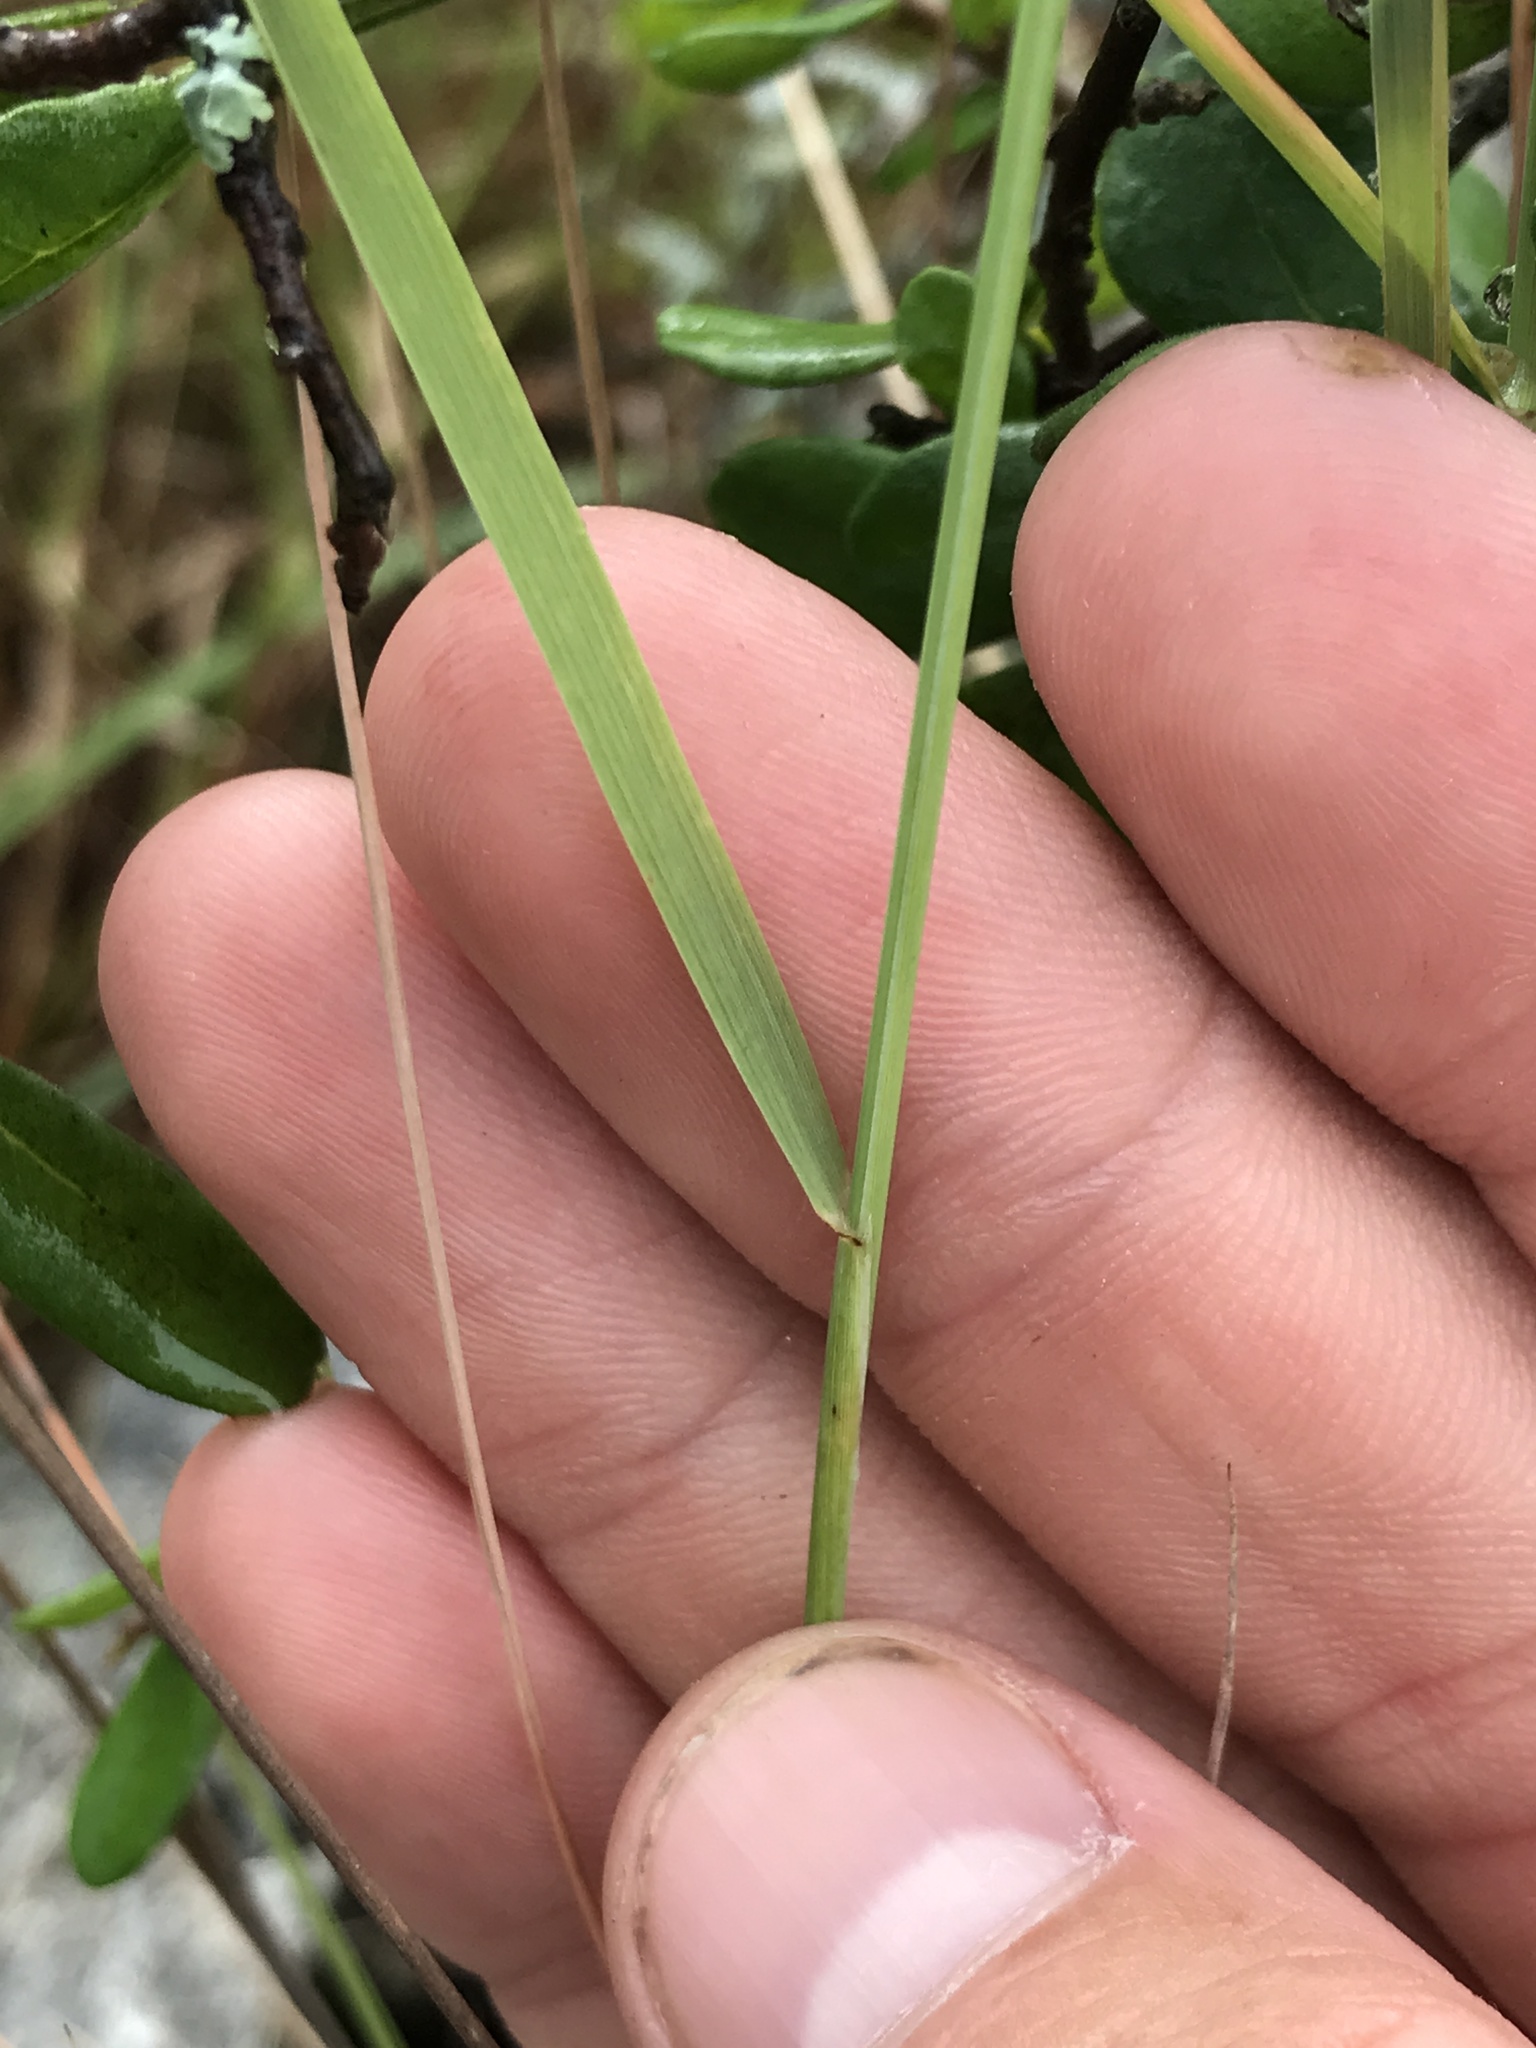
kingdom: Plantae
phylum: Tracheophyta
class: Liliopsida
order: Poales
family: Poaceae
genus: Tridentopsis
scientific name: Tridentopsis mutica
